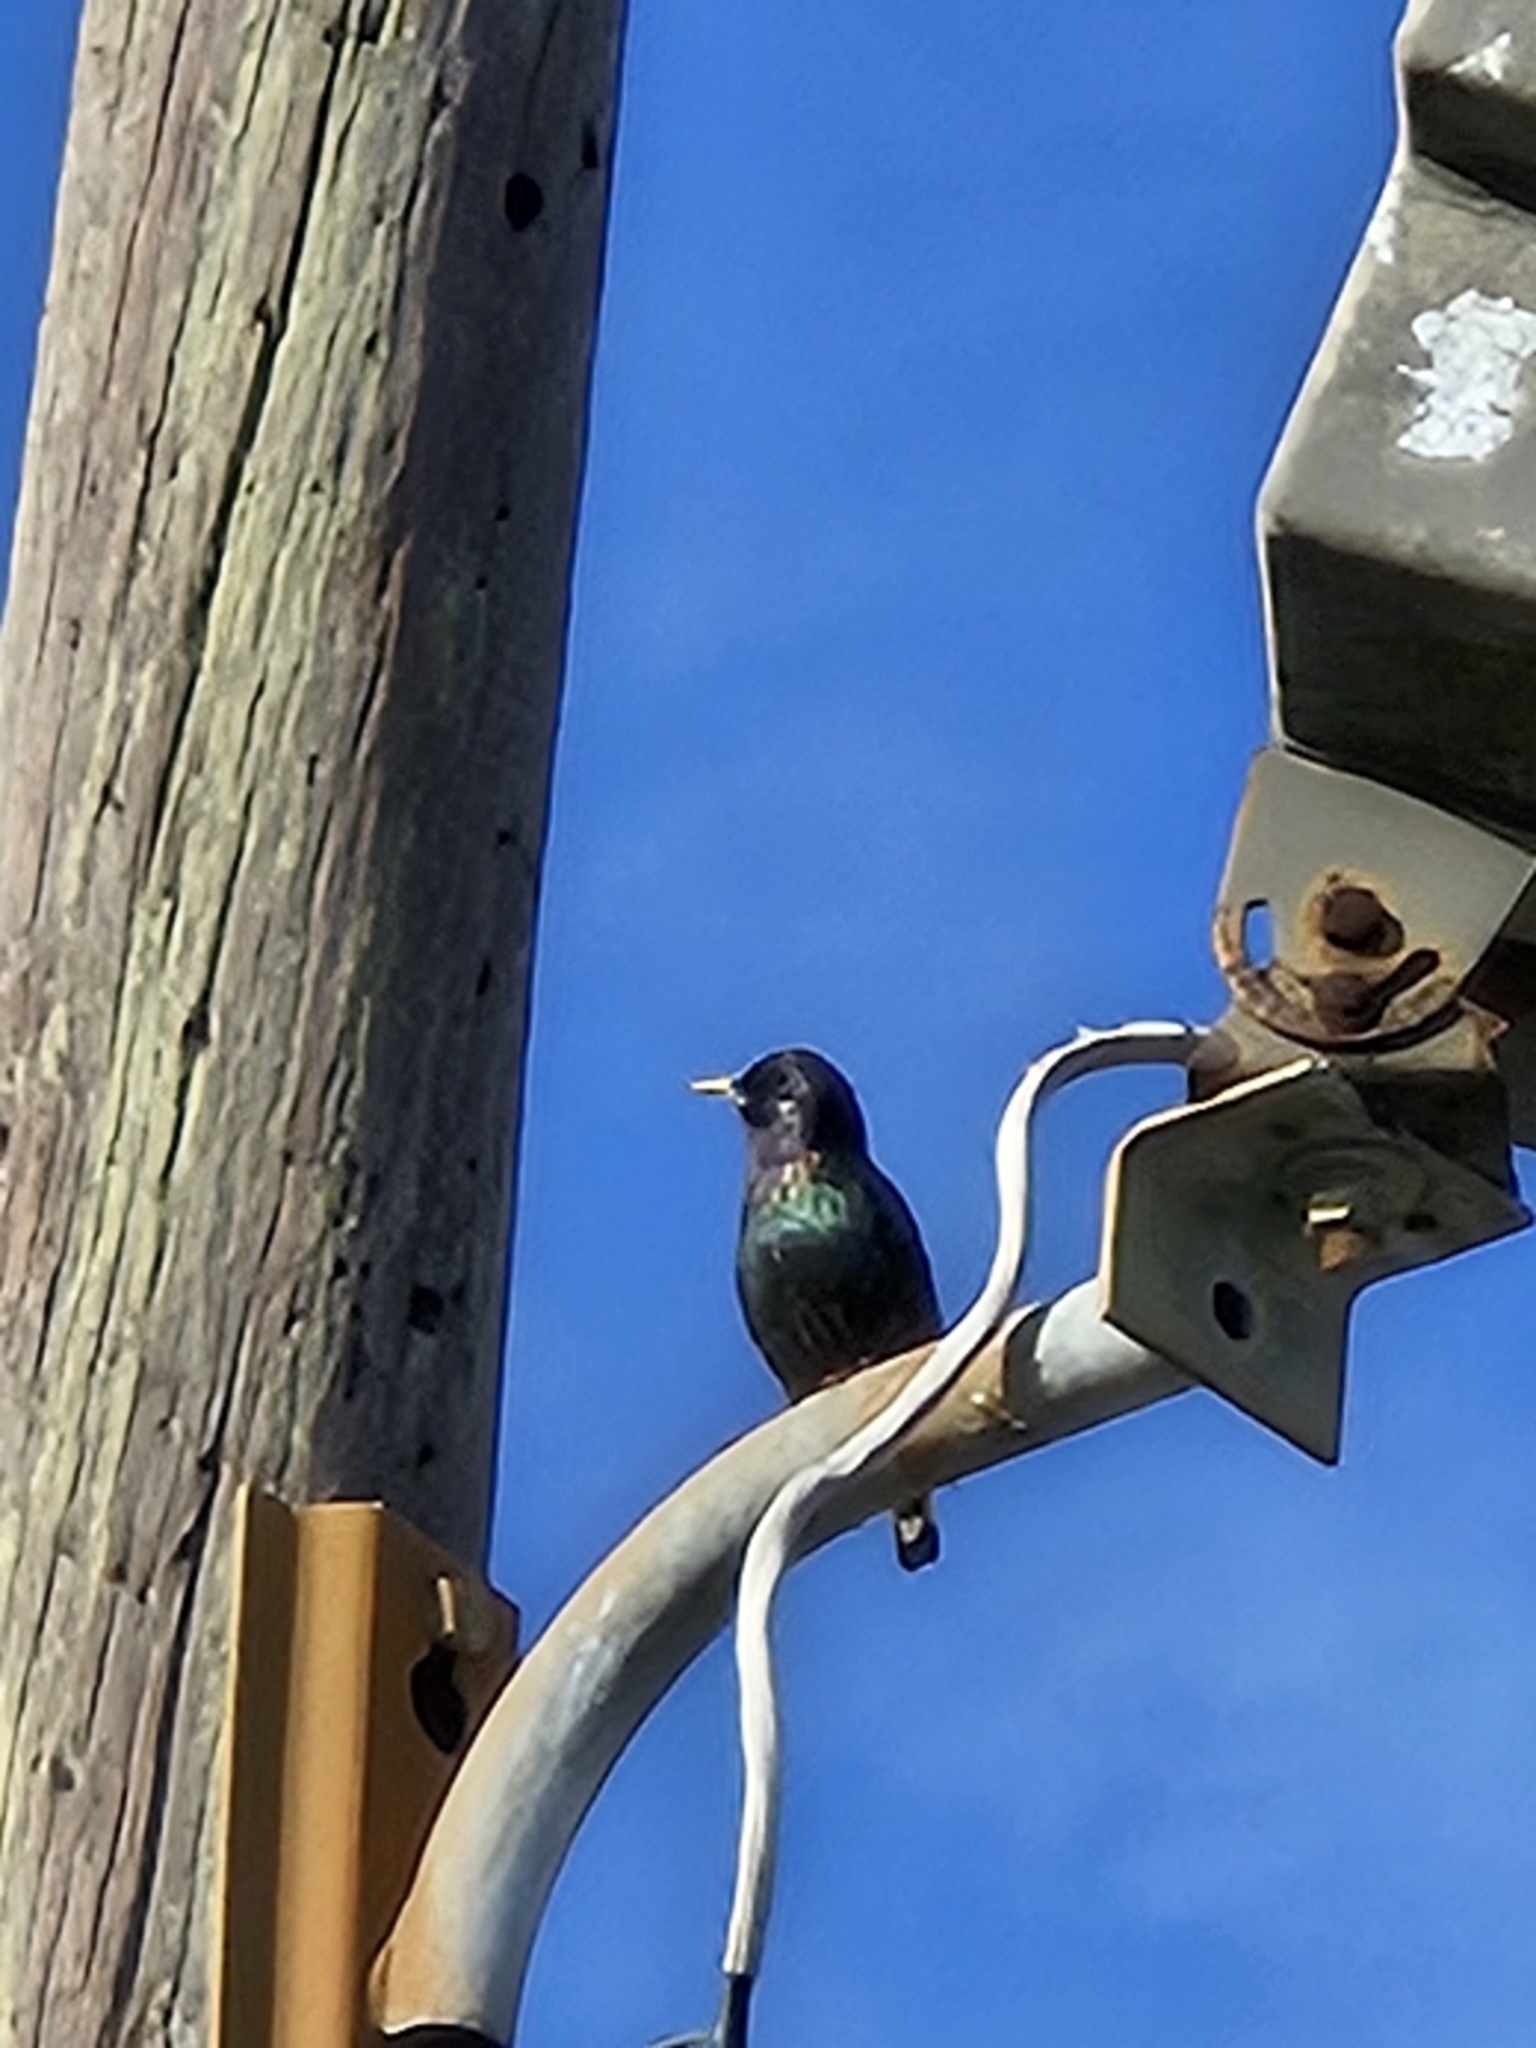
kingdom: Animalia
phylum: Chordata
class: Aves
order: Passeriformes
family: Sturnidae
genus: Sturnus
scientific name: Sturnus vulgaris
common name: Common starling
